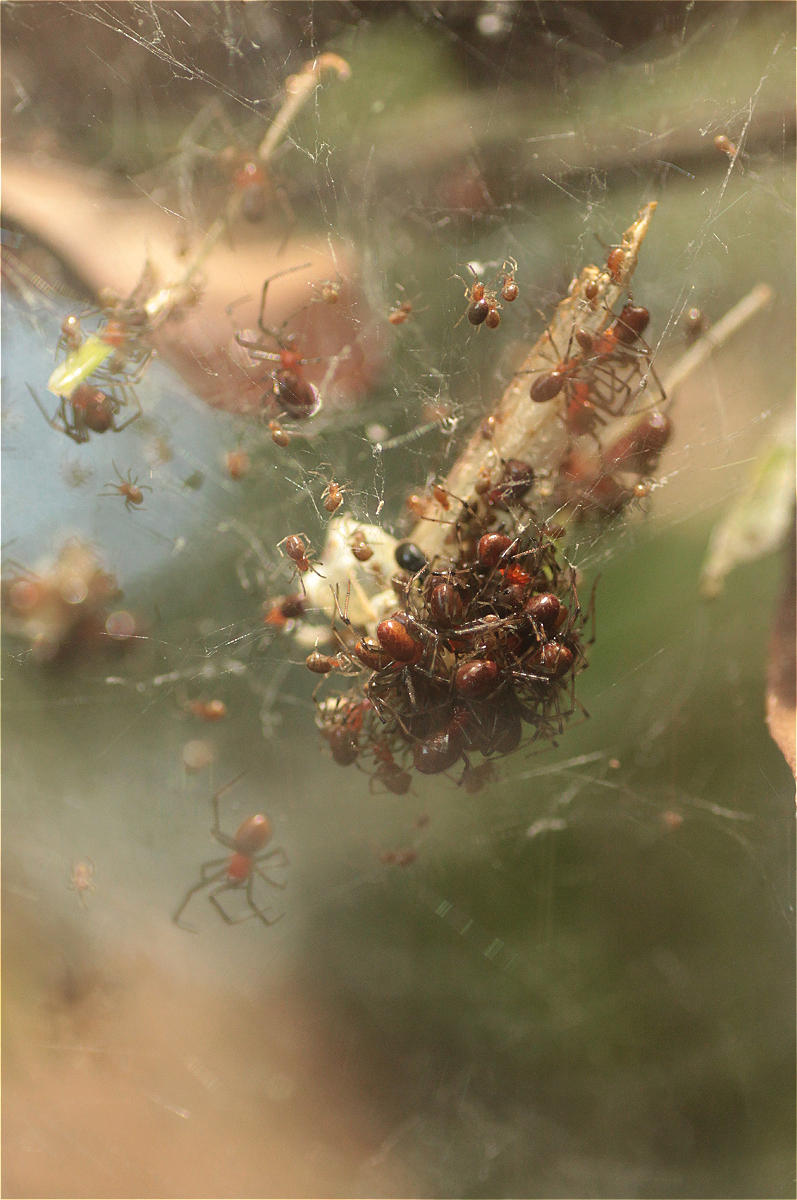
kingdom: Animalia
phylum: Arthropoda
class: Arachnida
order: Araneae
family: Theridiidae
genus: Anelosimus
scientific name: Anelosimus eximius
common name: Cobweb spiders
